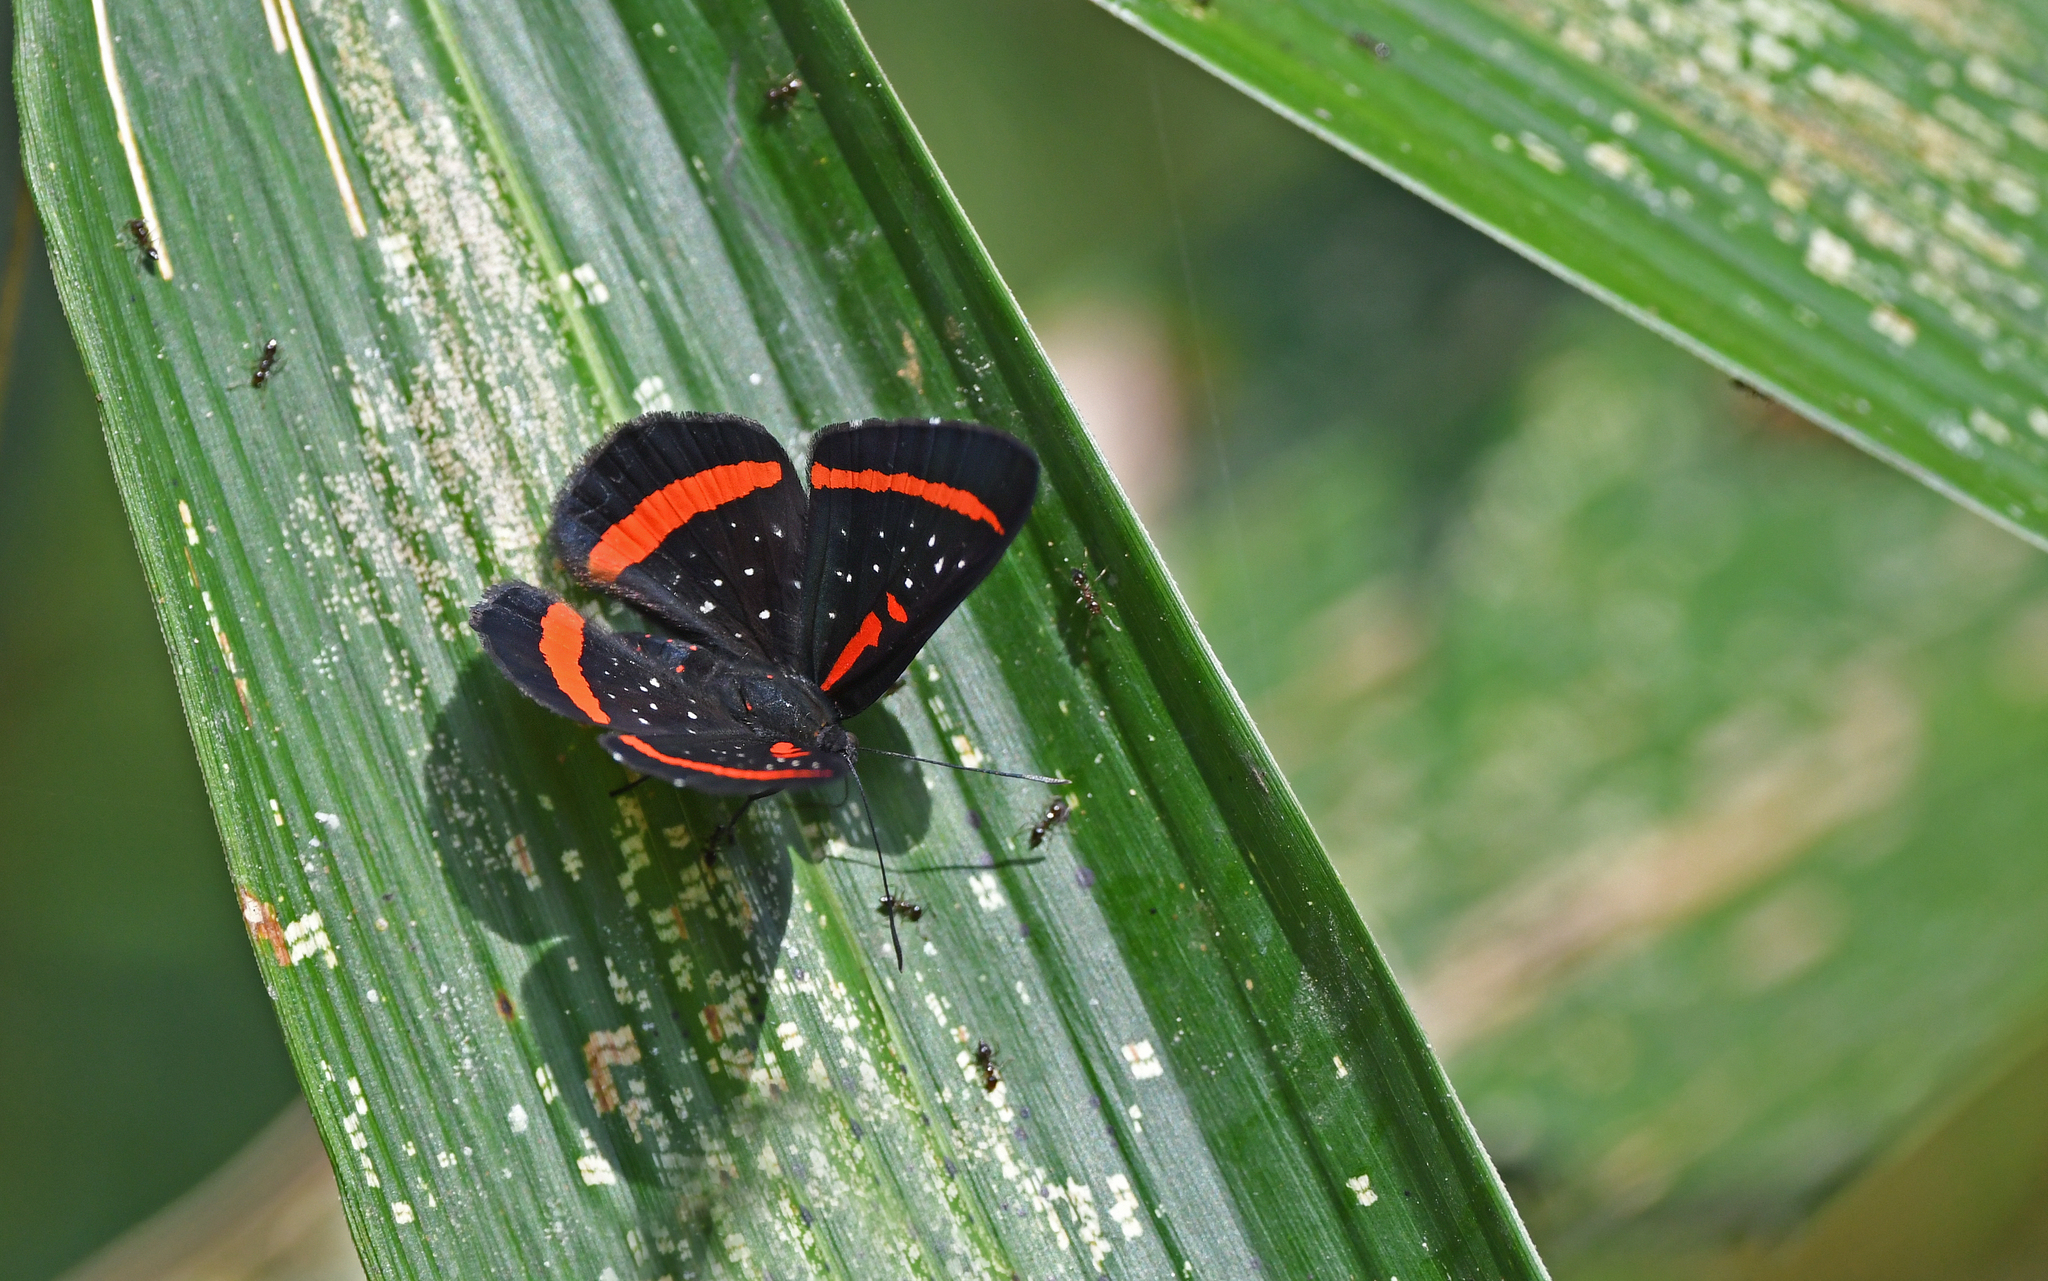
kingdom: Animalia
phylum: Arthropoda
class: Insecta
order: Lepidoptera
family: Riodinidae
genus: Amarynthis
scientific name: Amarynthis meneria
